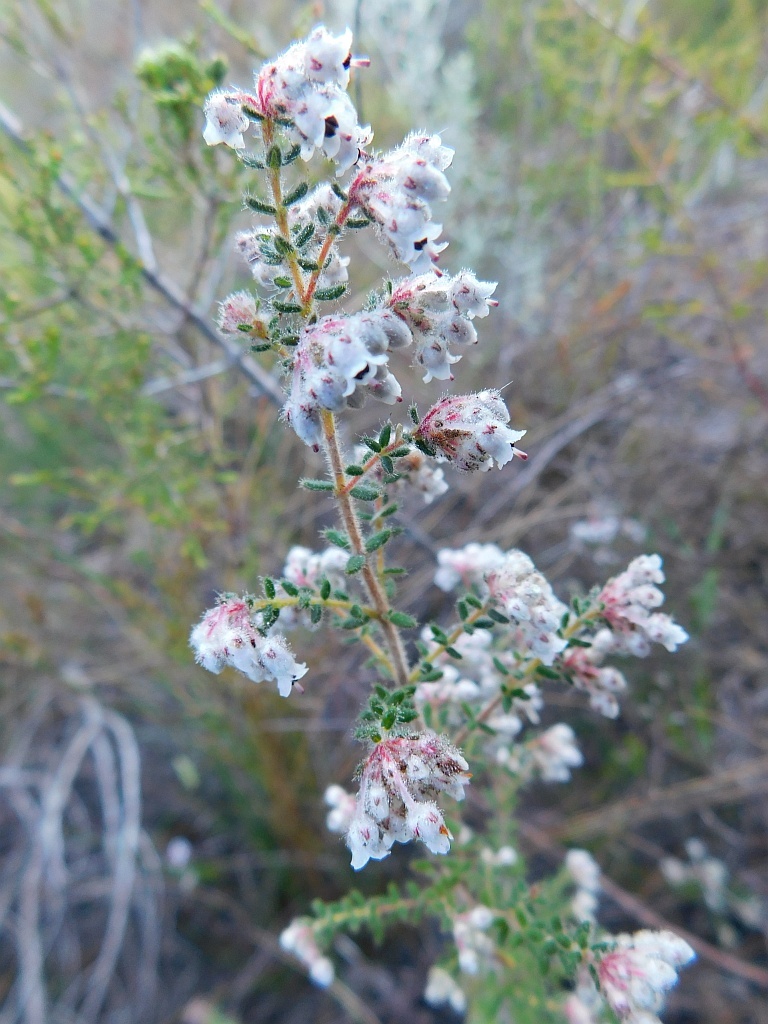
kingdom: Plantae
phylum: Tracheophyta
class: Magnoliopsida
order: Ericales
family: Ericaceae
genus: Erica
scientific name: Erica perlata
